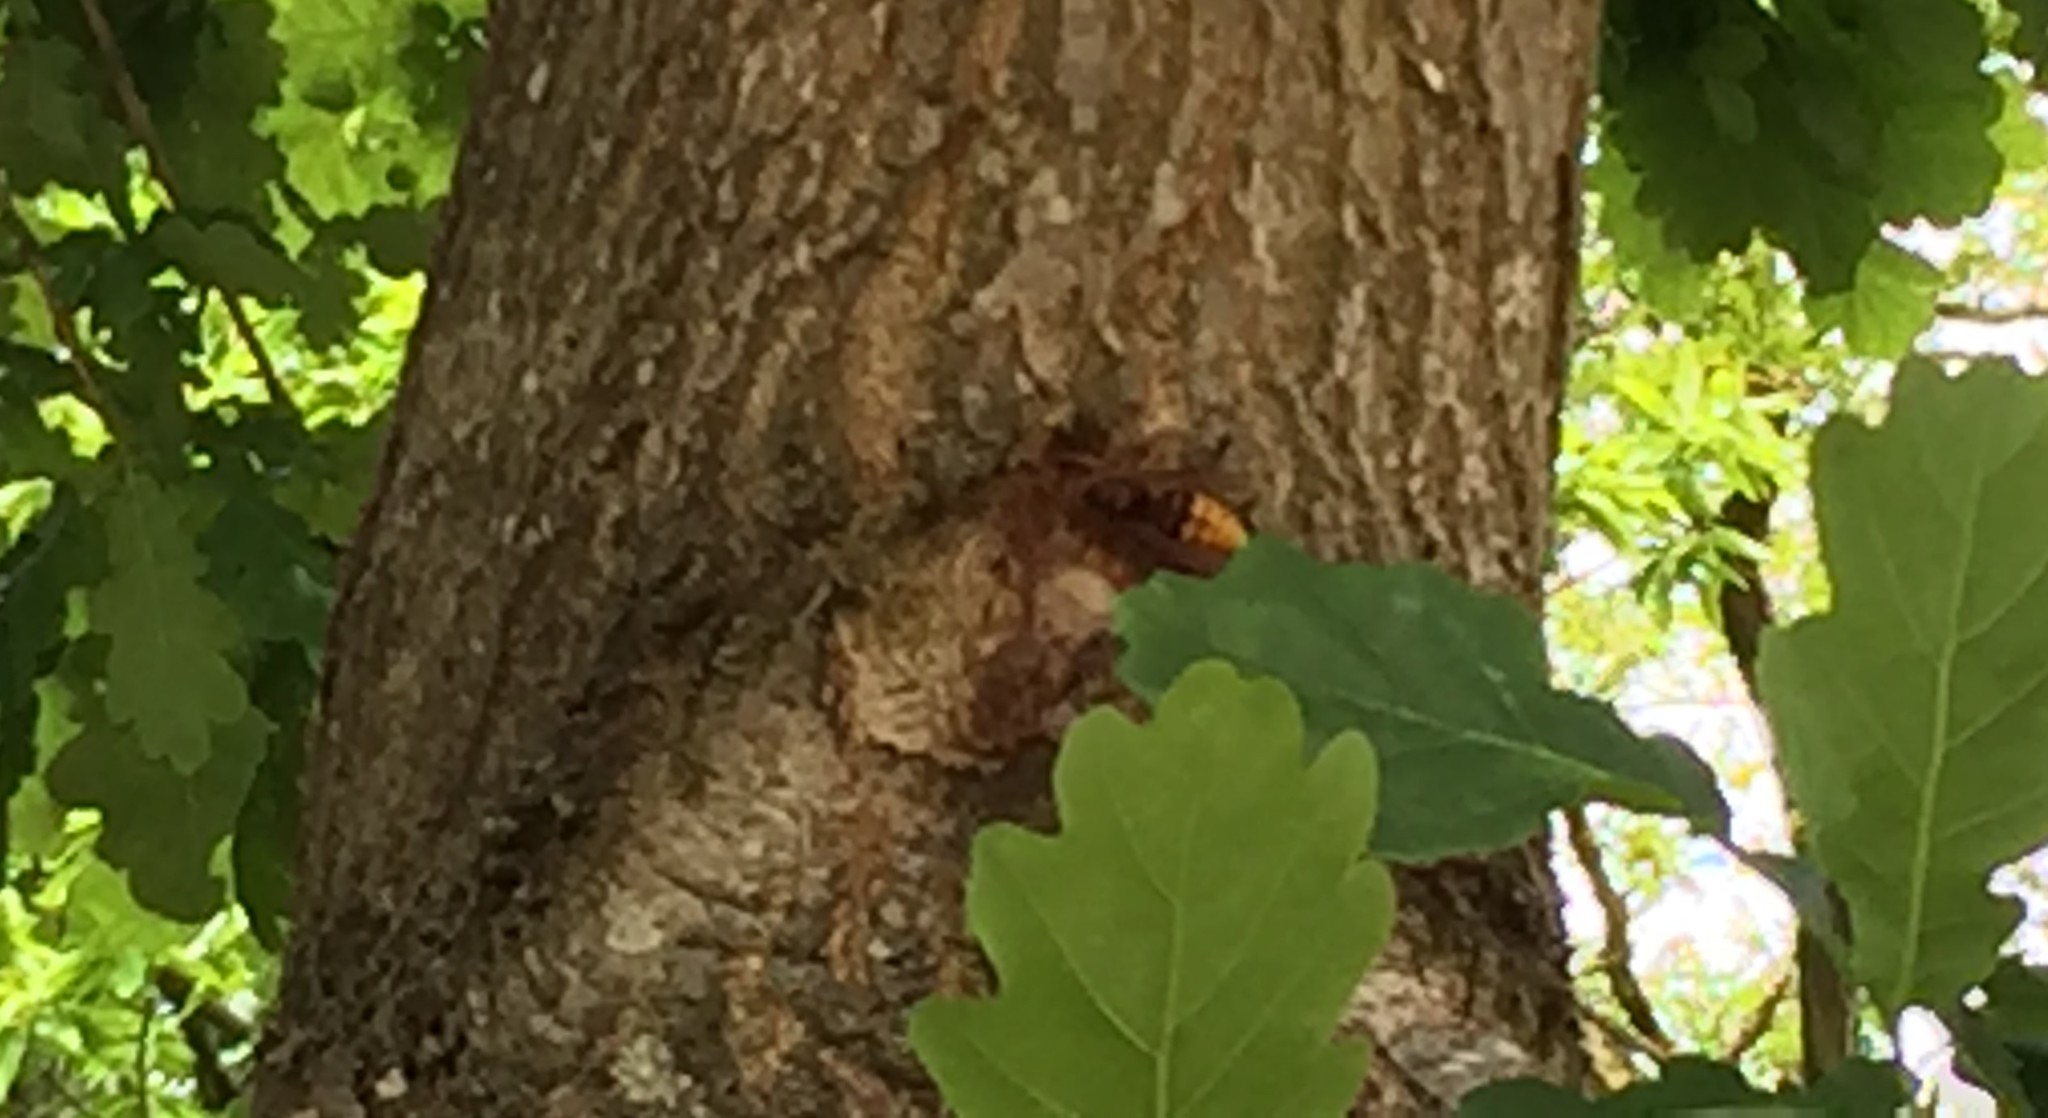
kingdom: Animalia
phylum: Arthropoda
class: Insecta
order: Hymenoptera
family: Vespidae
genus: Vespa
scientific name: Vespa crabro
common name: Hornet
